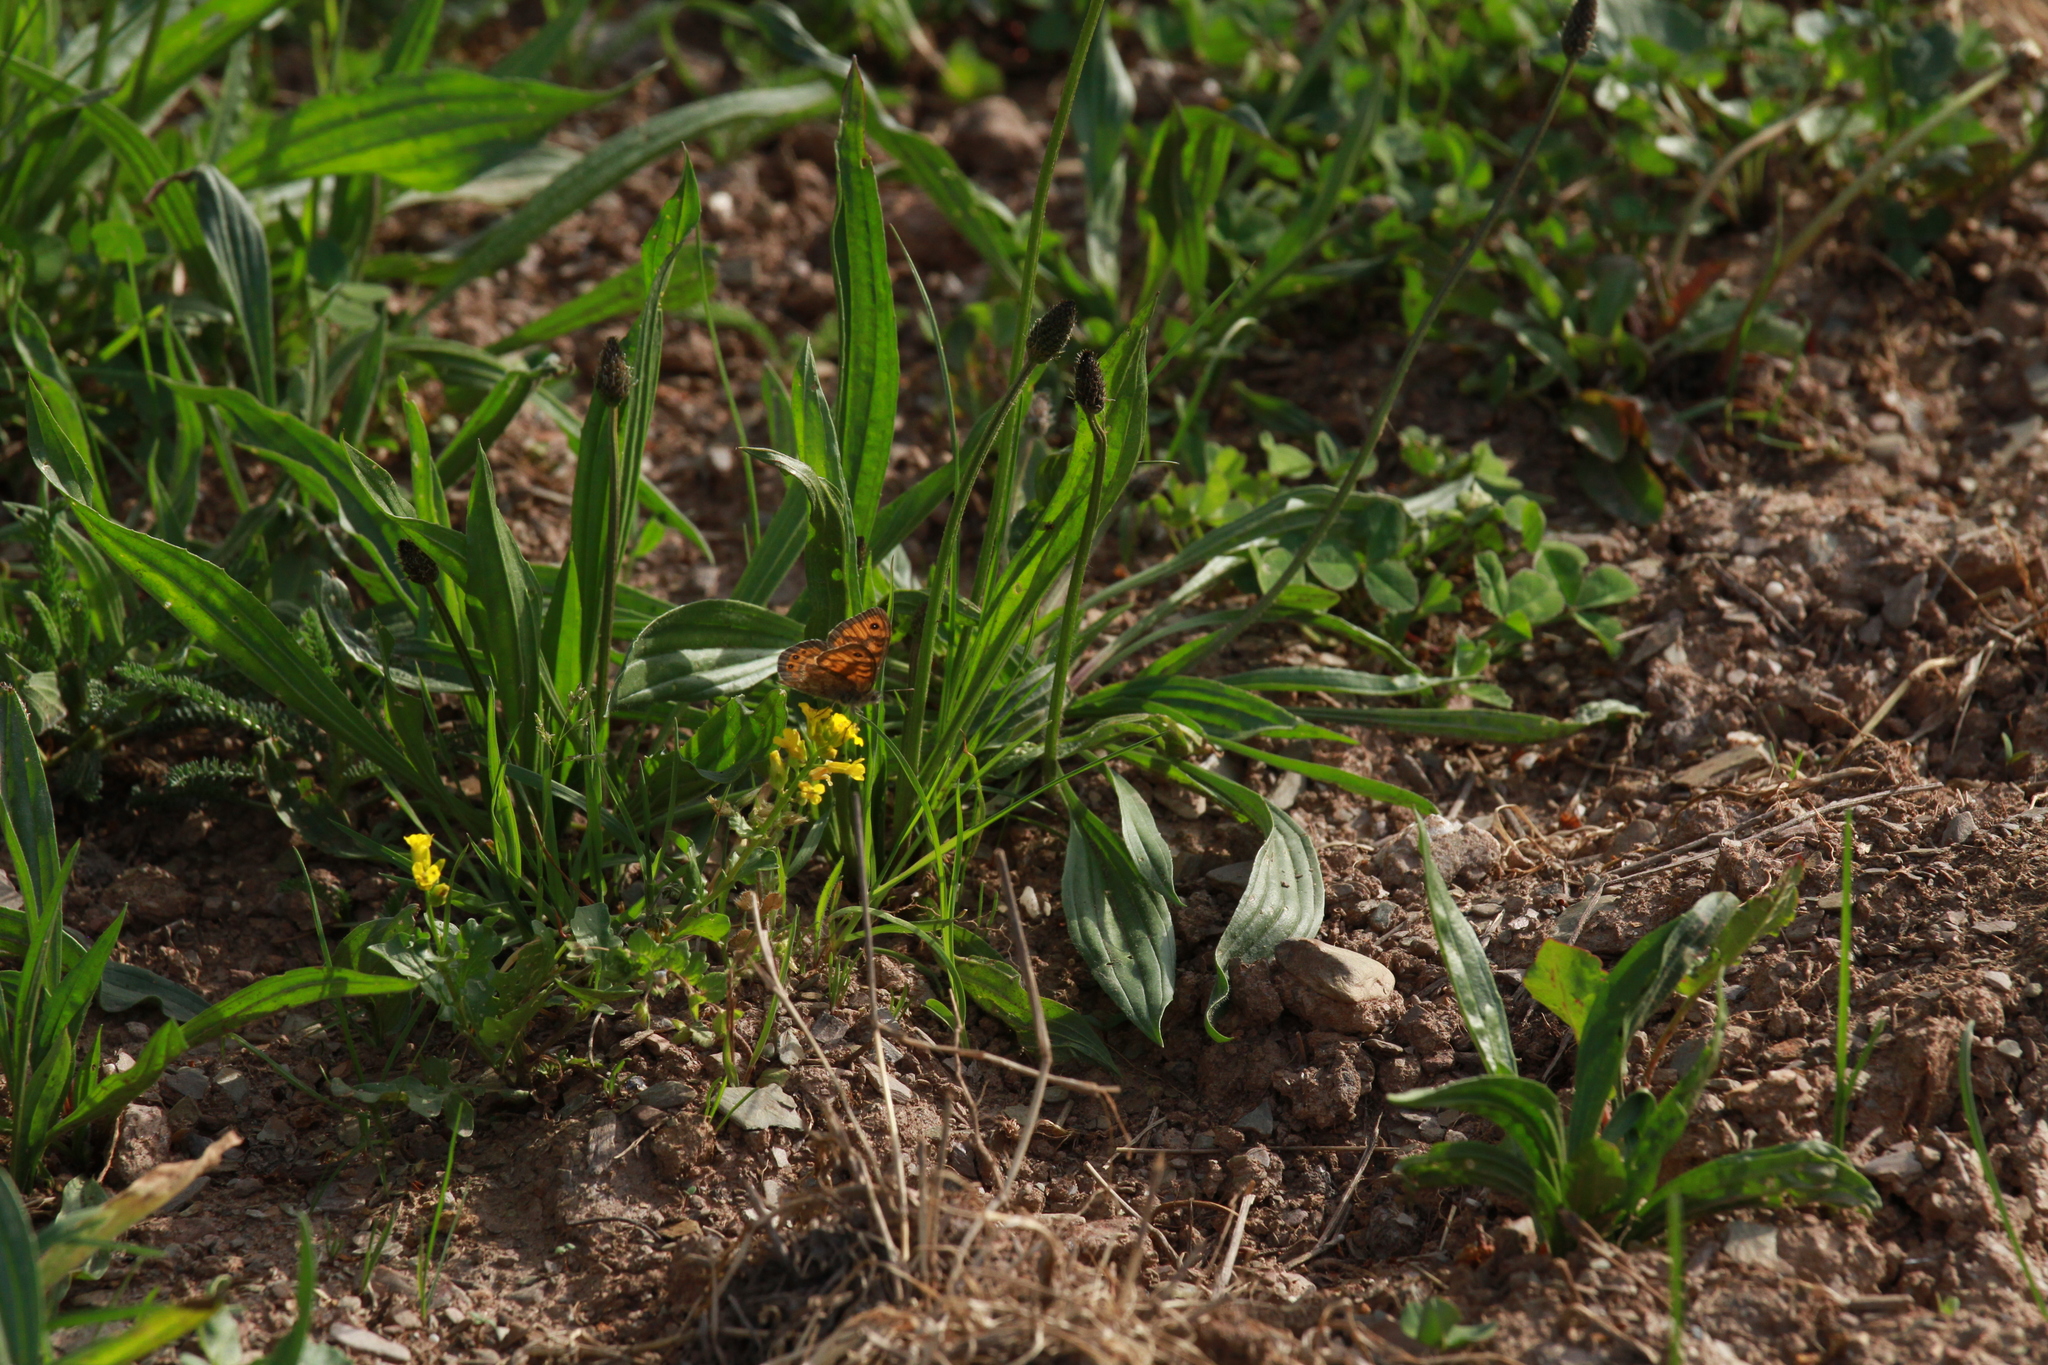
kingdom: Animalia
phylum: Arthropoda
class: Insecta
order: Lepidoptera
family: Nymphalidae
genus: Pararge
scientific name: Pararge Lasiommata megera
